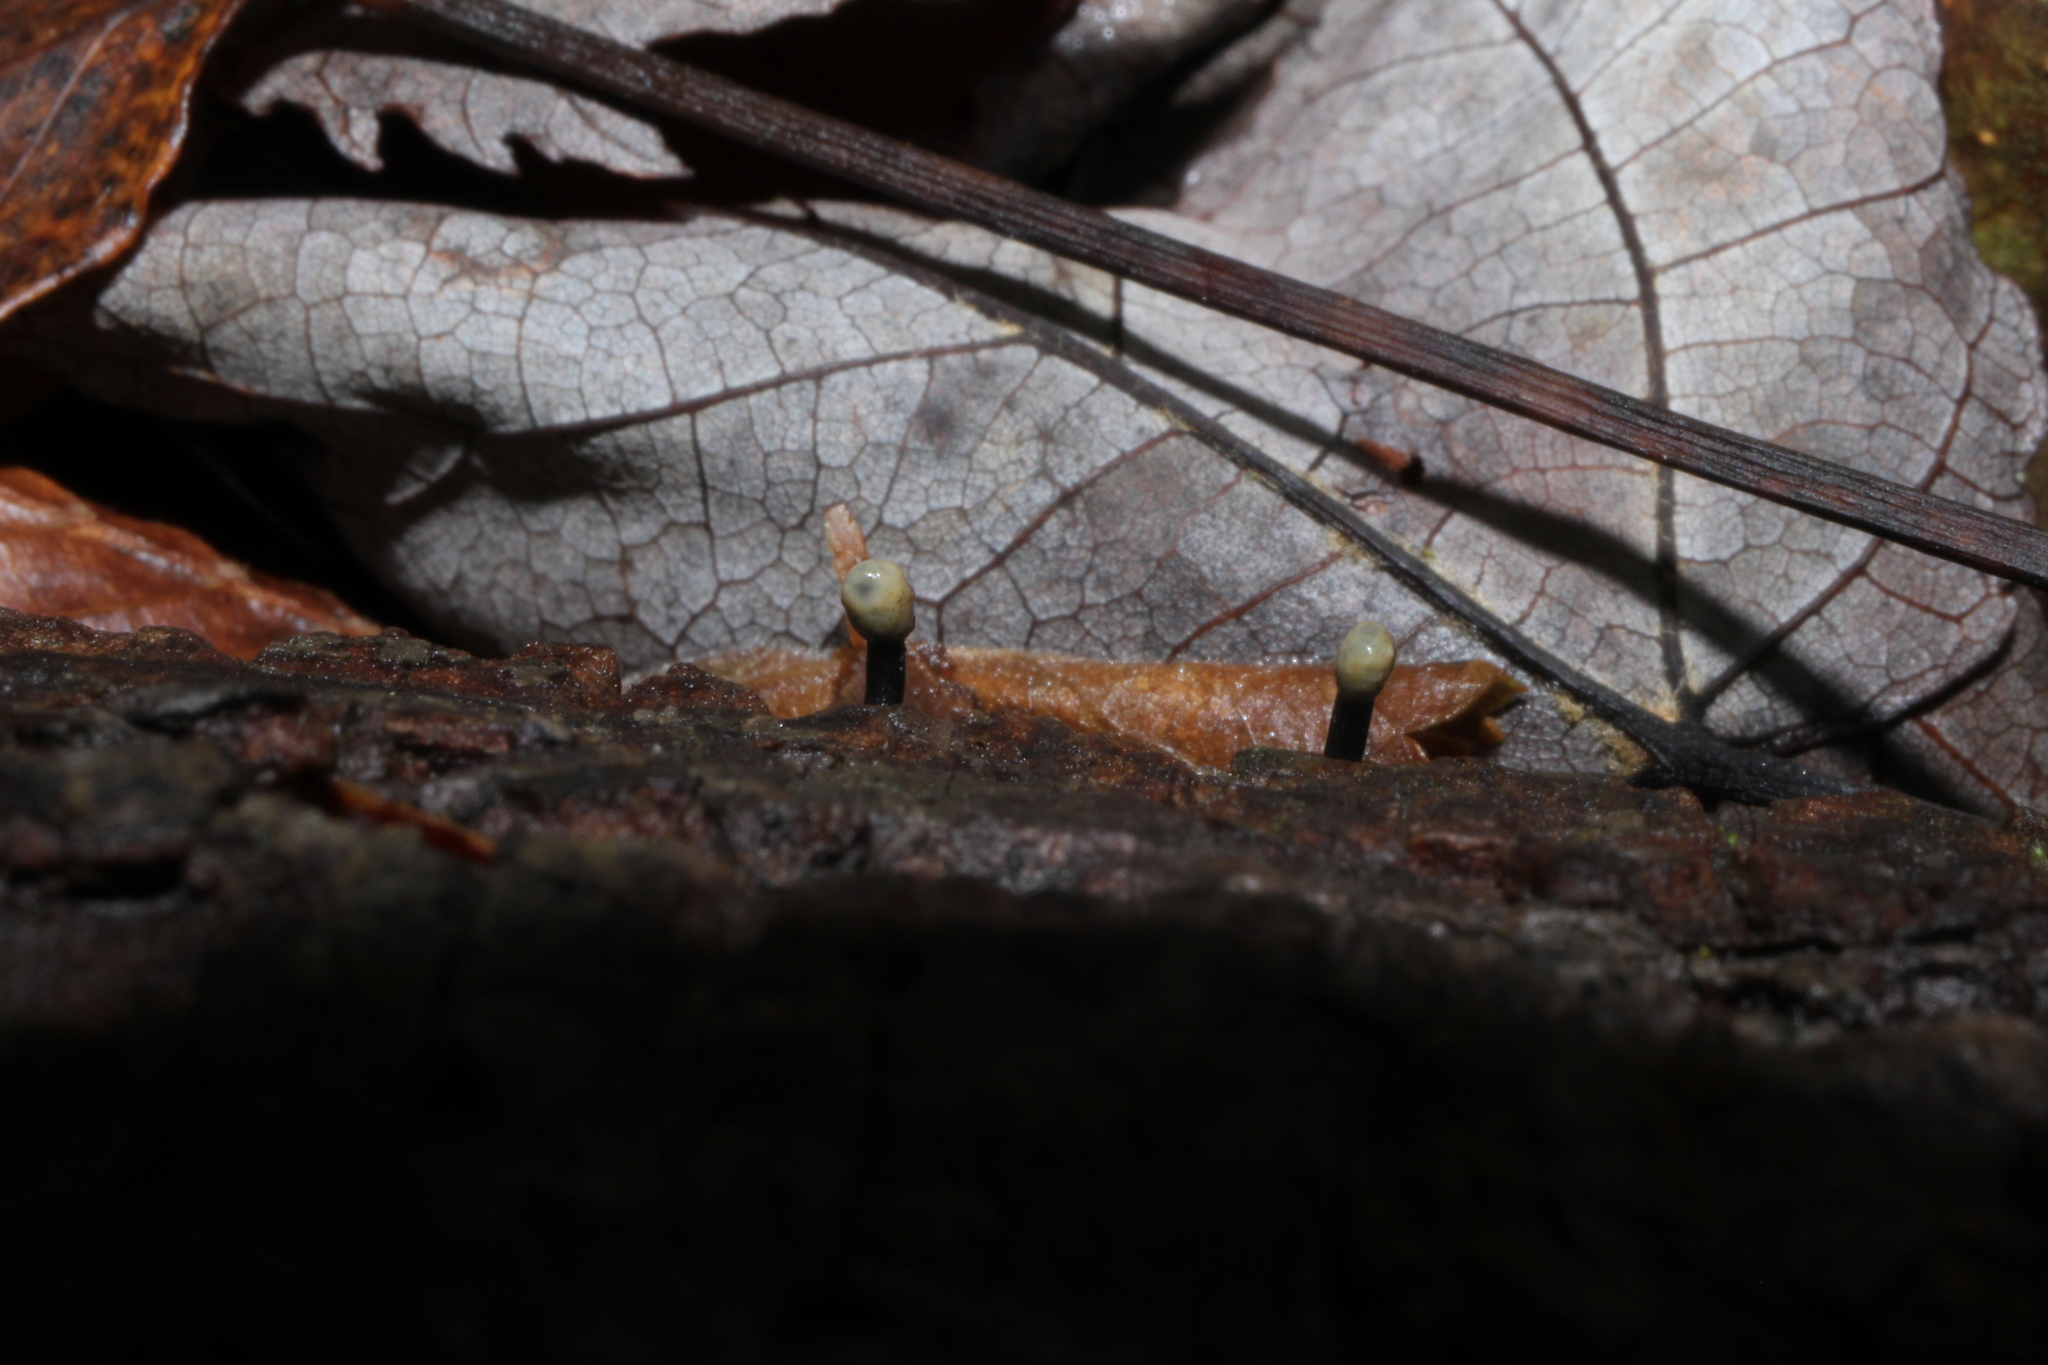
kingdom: Fungi
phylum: Ascomycota
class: Leotiomycetes
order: Helotiales
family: Bulgariaceae
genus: Holwaya
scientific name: Holwaya mucida
